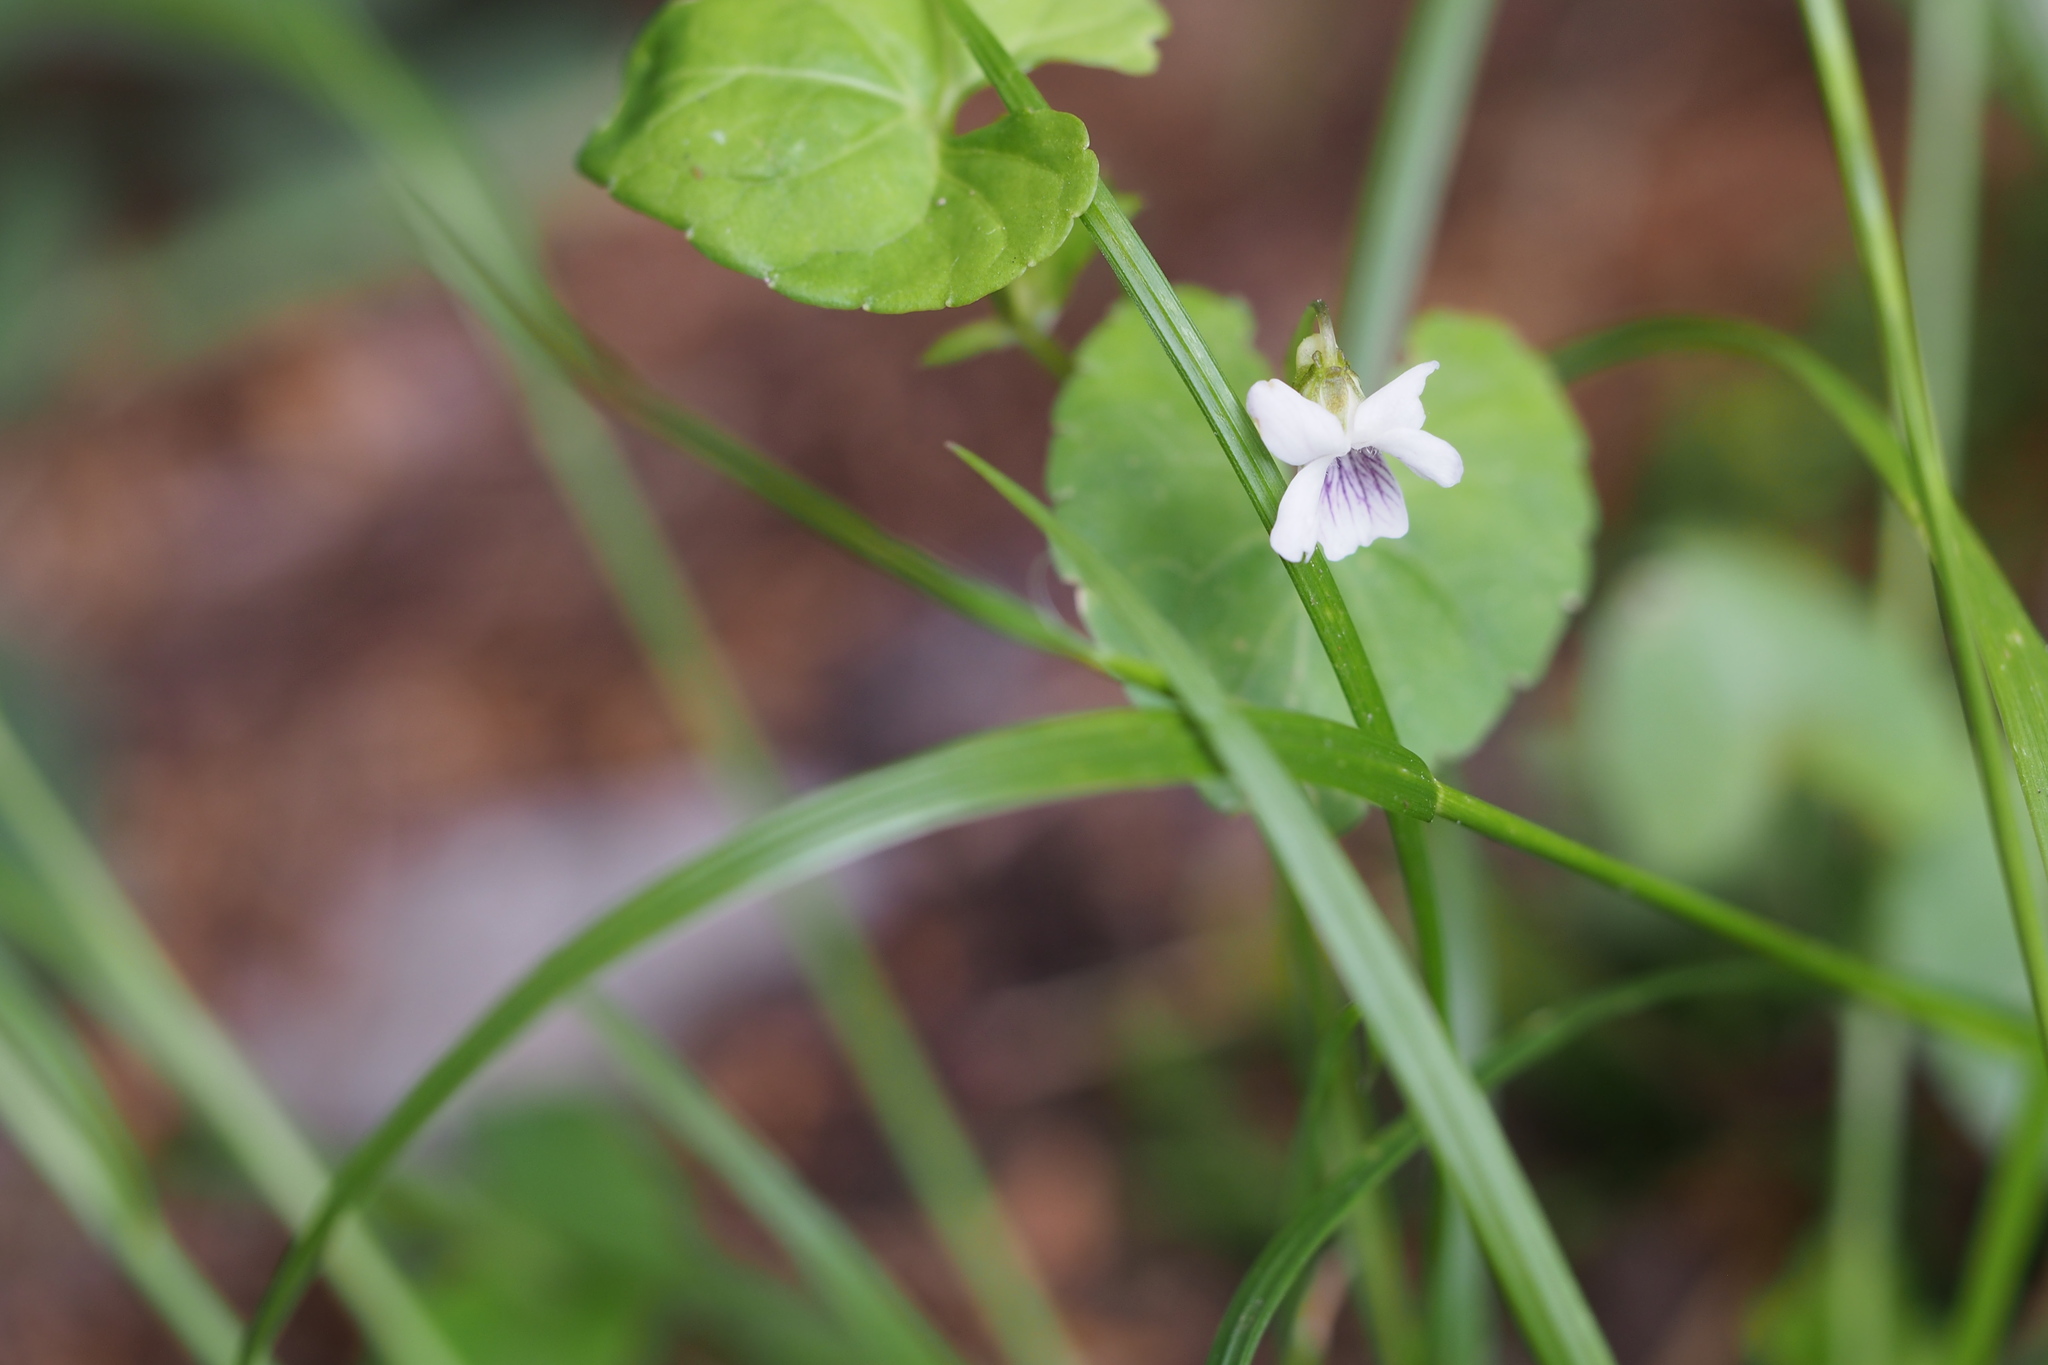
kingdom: Plantae
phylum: Tracheophyta
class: Magnoliopsida
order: Malpighiales
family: Violaceae
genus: Viola
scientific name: Viola
